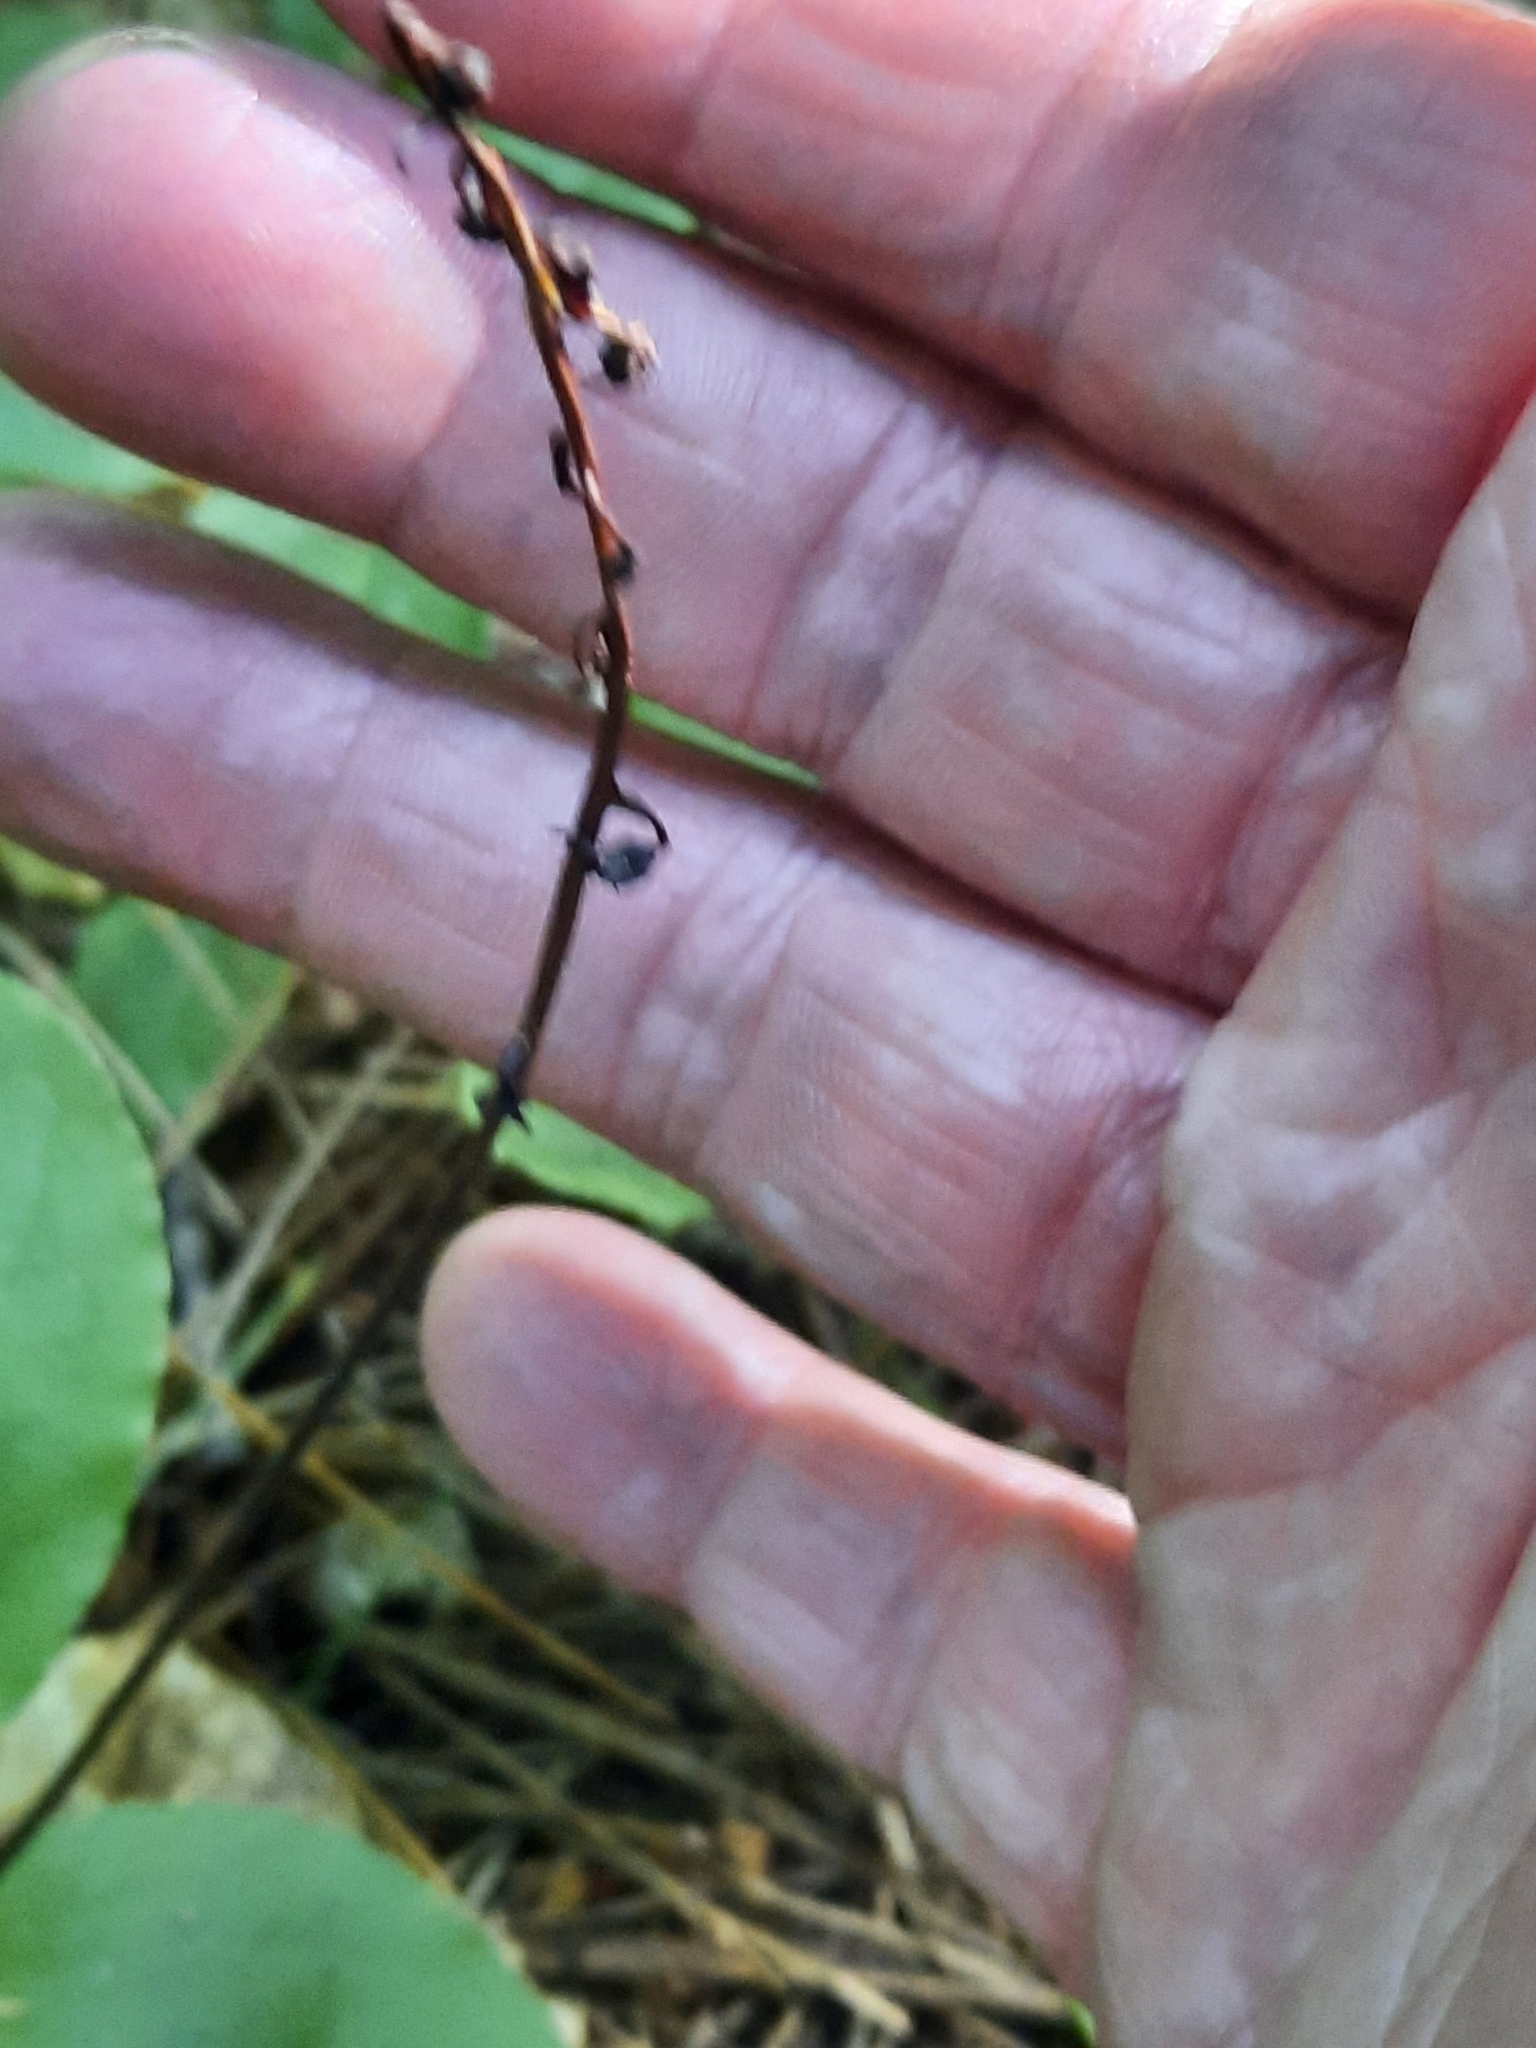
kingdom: Plantae
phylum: Tracheophyta
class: Magnoliopsida
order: Ericales
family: Ericaceae
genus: Pyrola
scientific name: Pyrola elliptica
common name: Shinleaf
